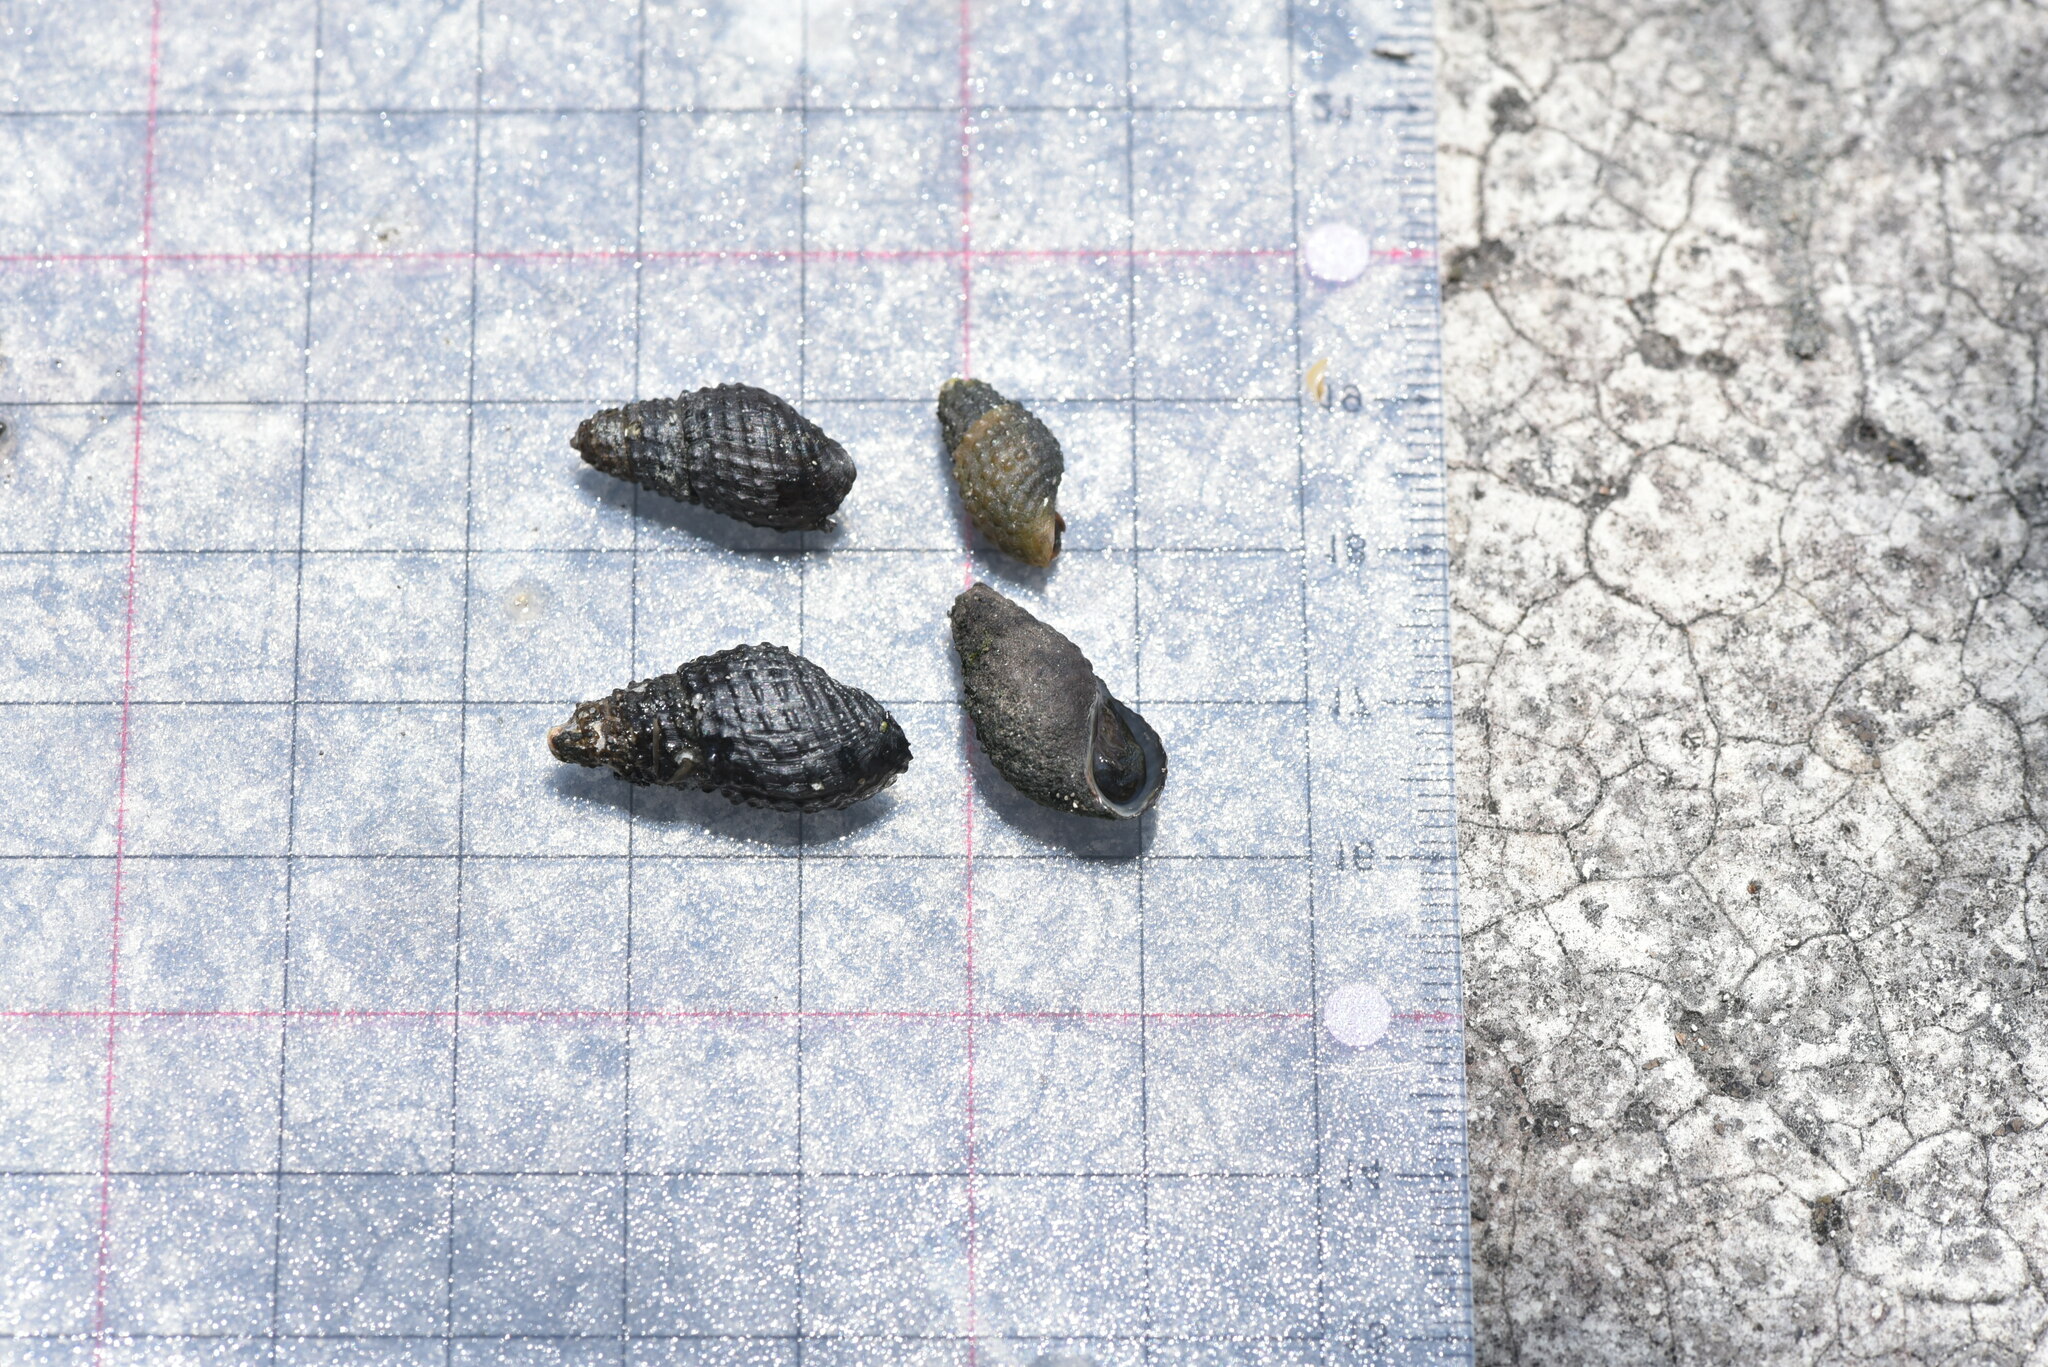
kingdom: Animalia
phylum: Mollusca
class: Gastropoda
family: Thiaridae
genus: Tarebia
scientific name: Tarebia granifera
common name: Quilted melania
